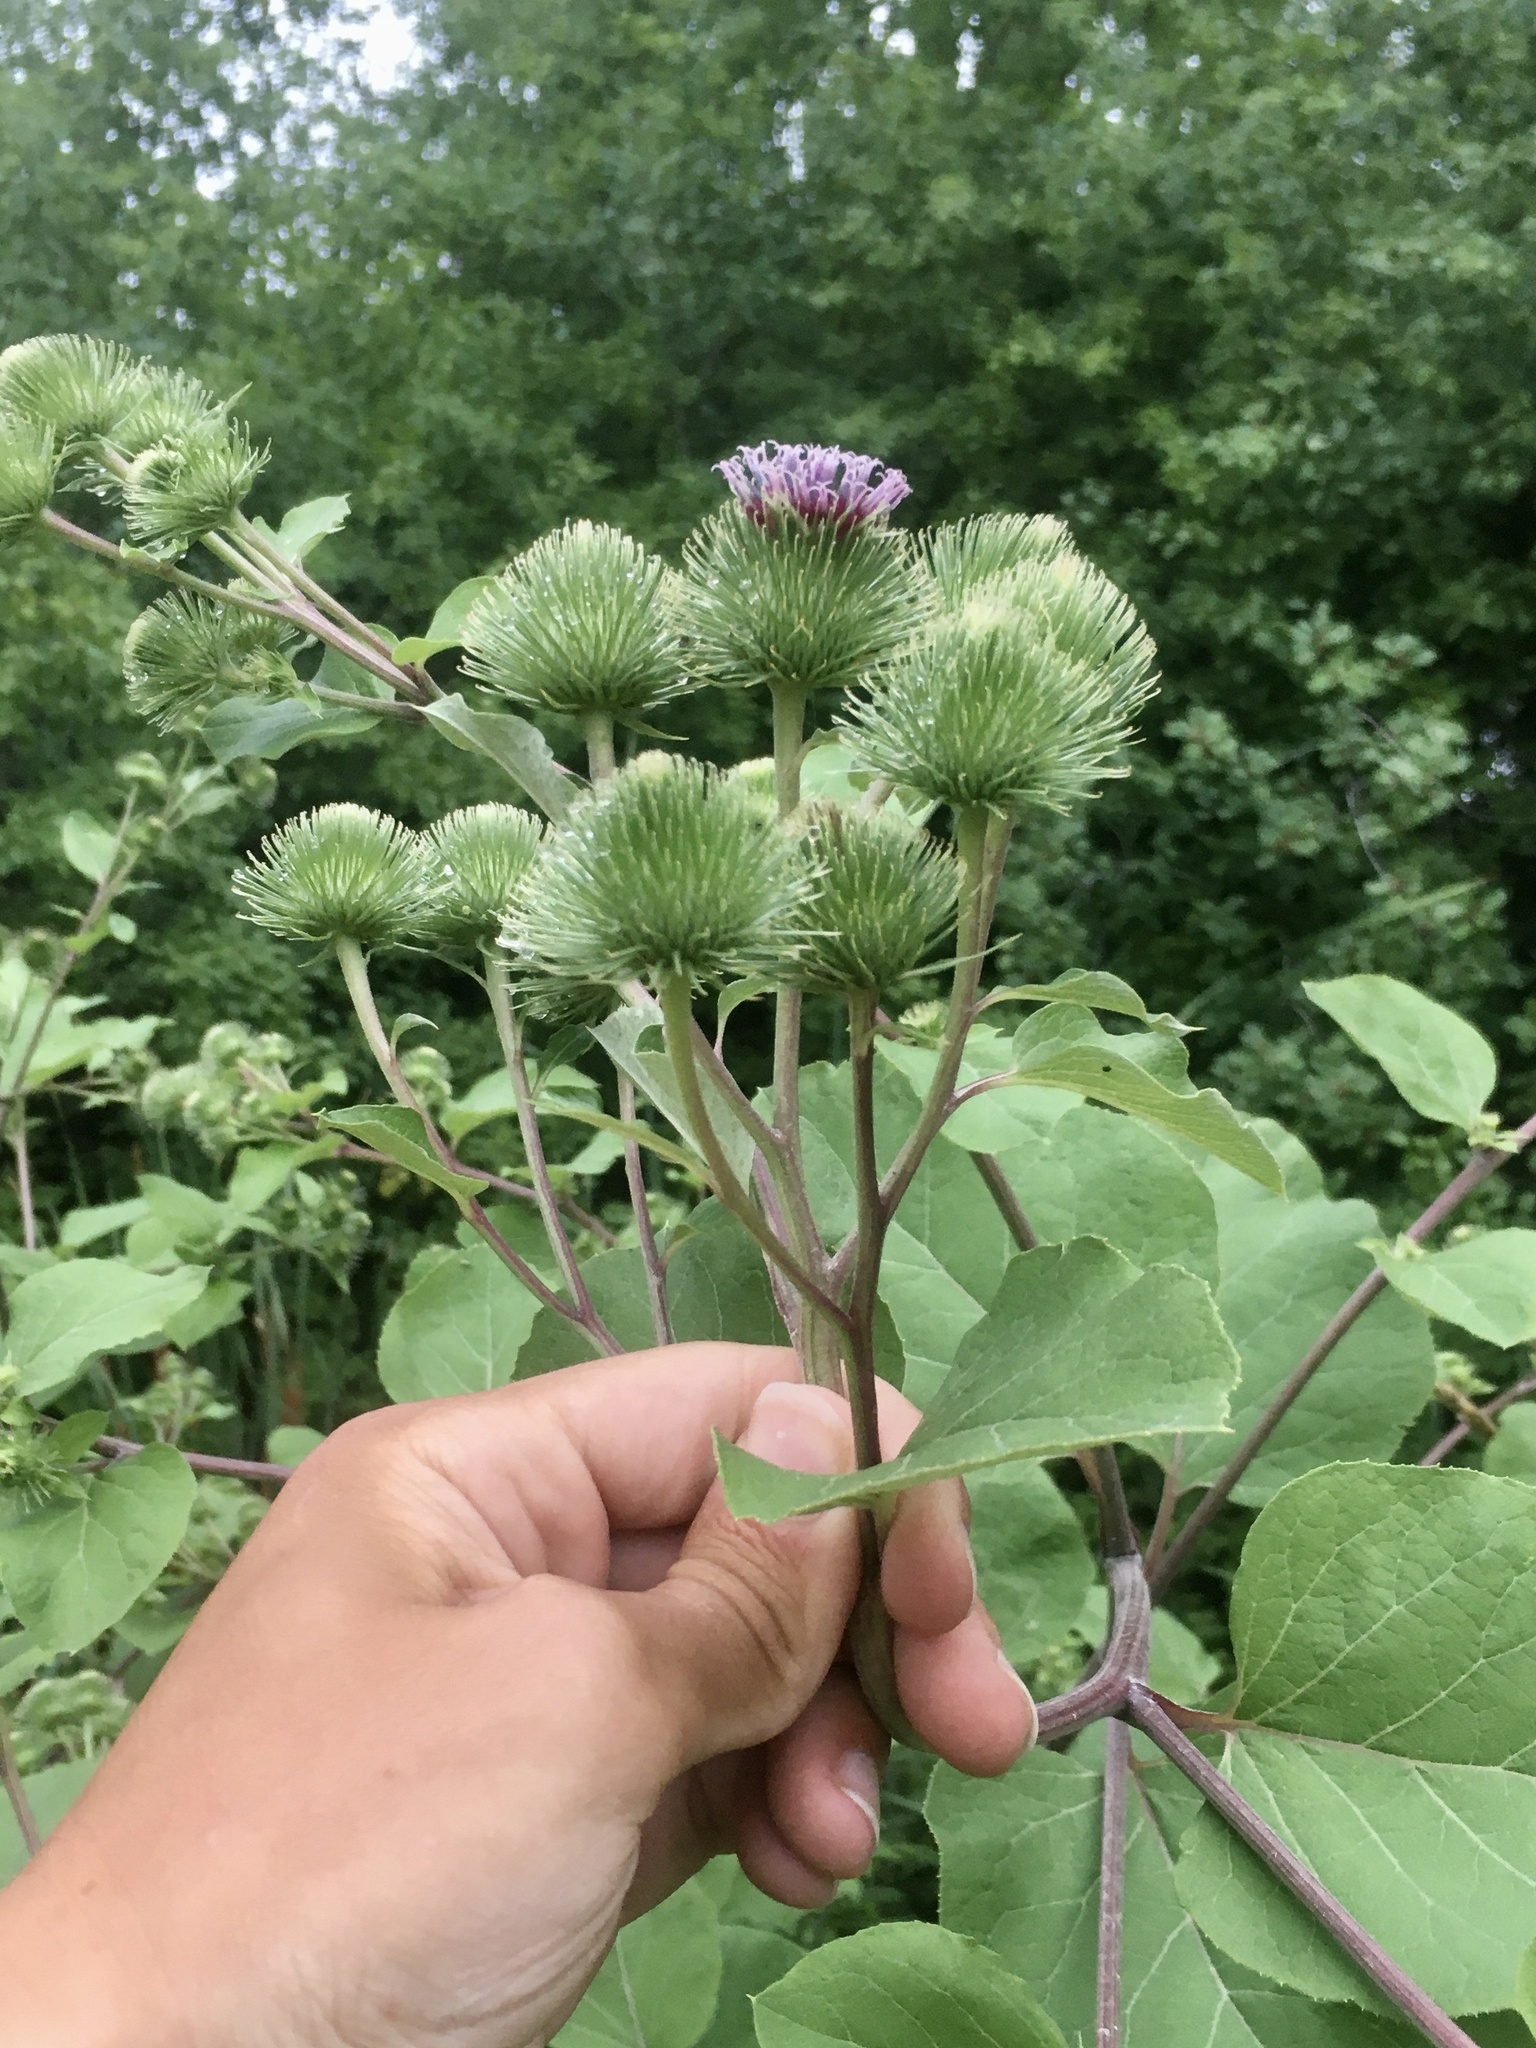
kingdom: Plantae
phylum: Tracheophyta
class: Magnoliopsida
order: Asterales
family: Asteraceae
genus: Arctium
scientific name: Arctium lappa
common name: Greater burdock
